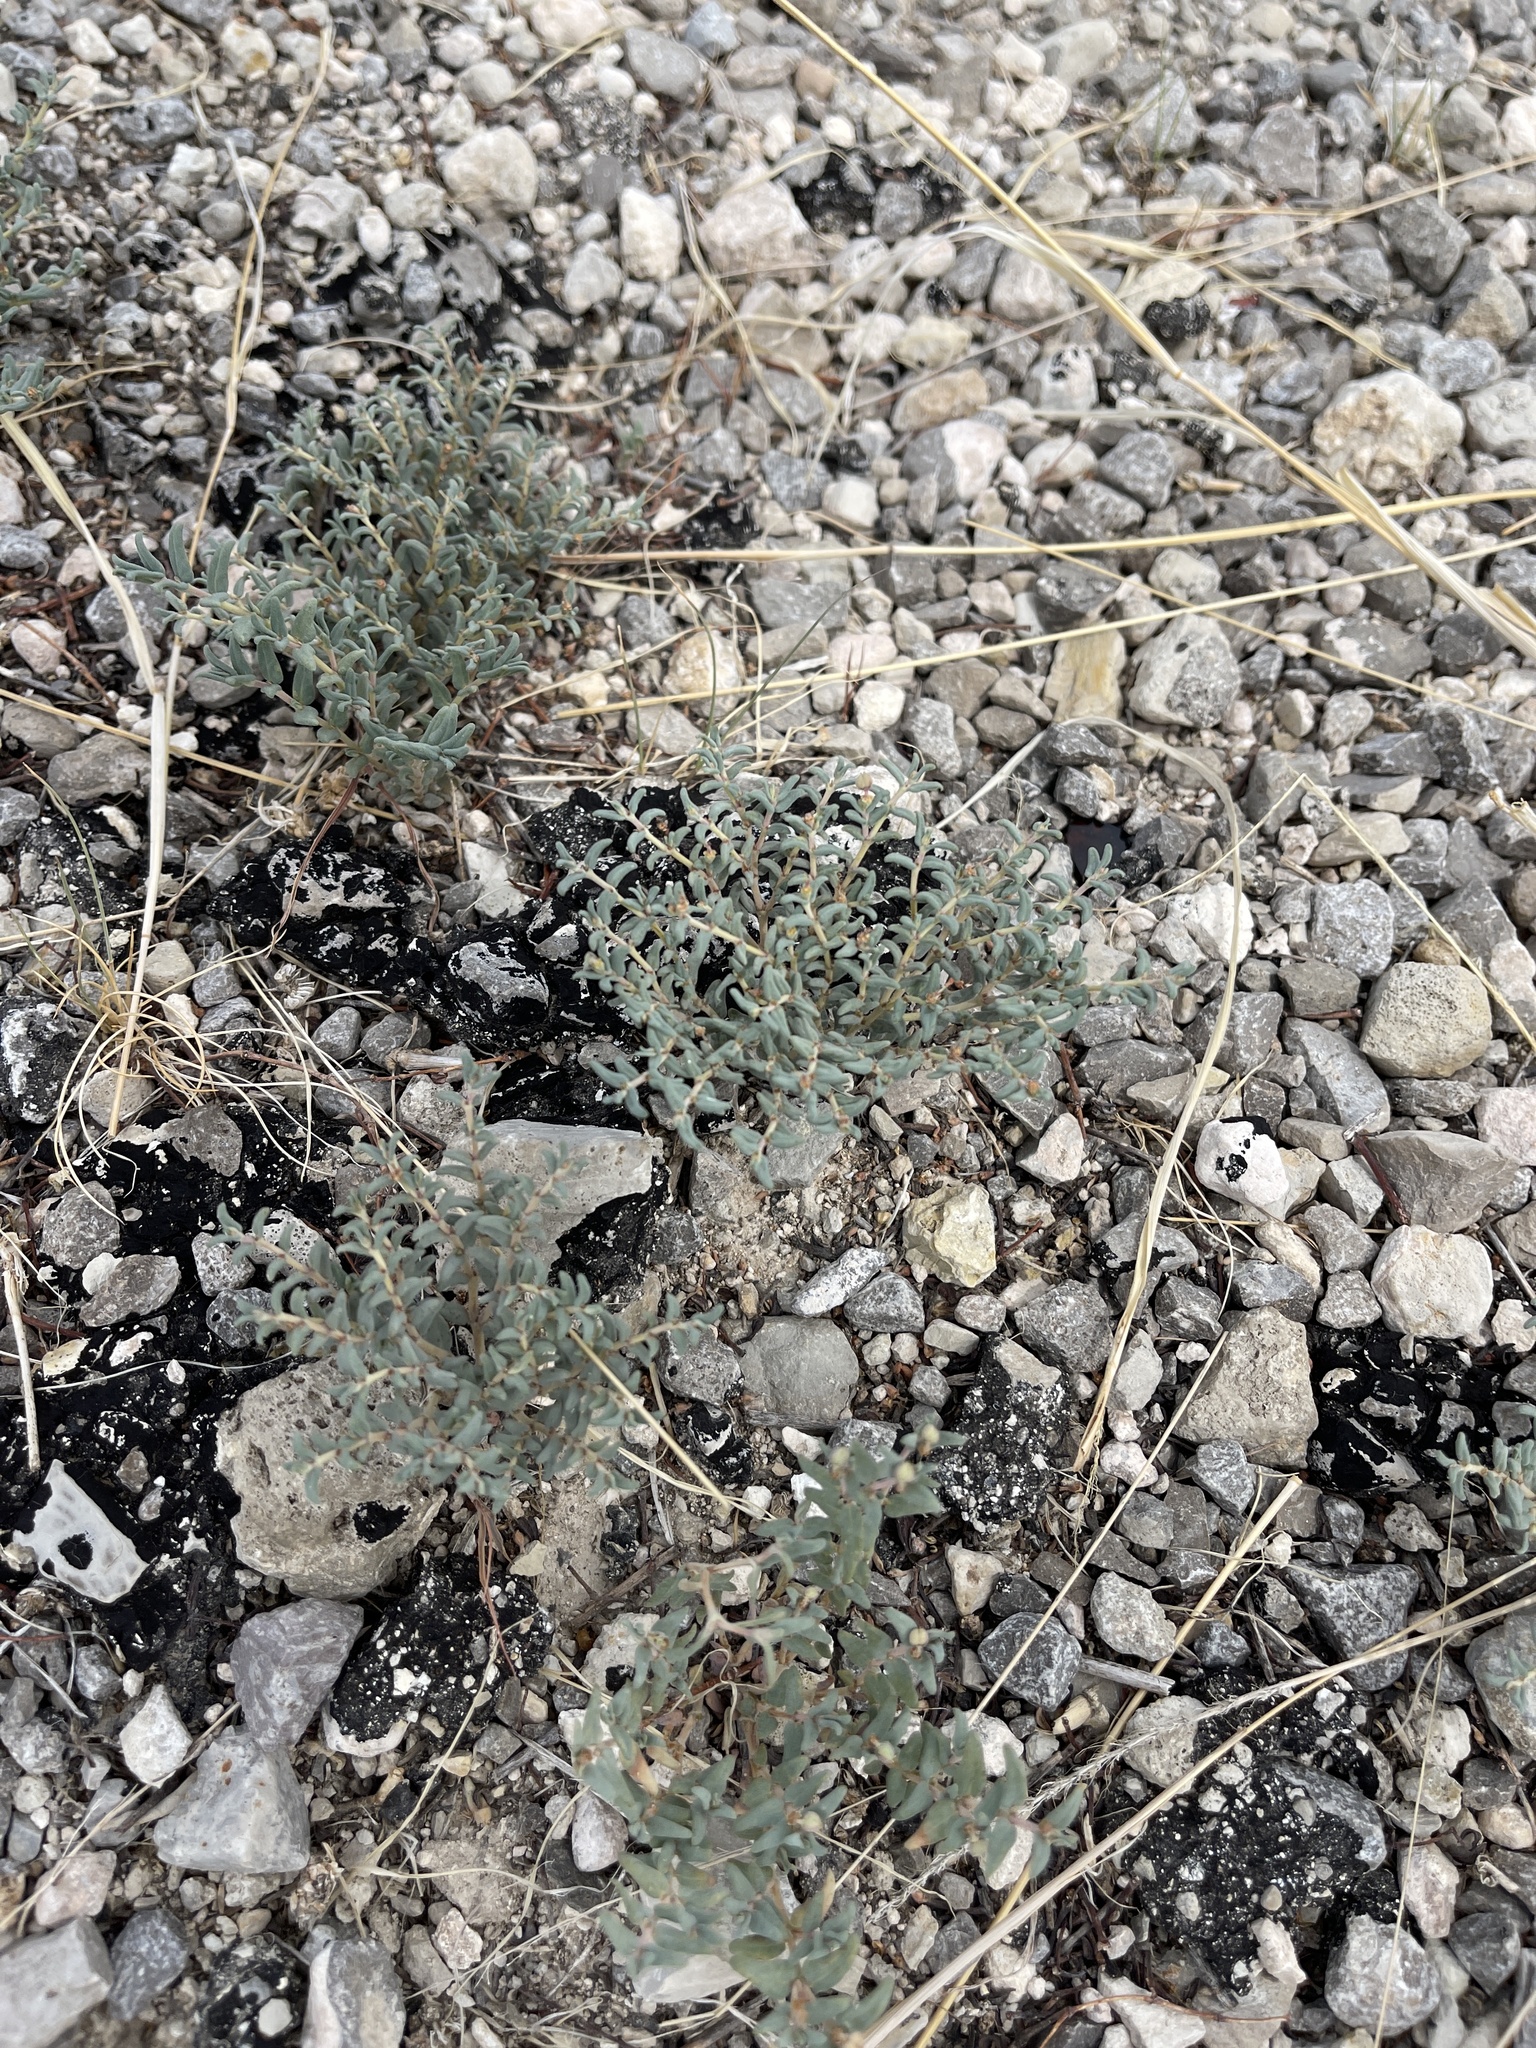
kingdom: Plantae
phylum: Tracheophyta
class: Magnoliopsida
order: Malpighiales
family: Euphorbiaceae
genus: Euphorbia
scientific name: Euphorbia lata
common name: Hoary euphorbia
